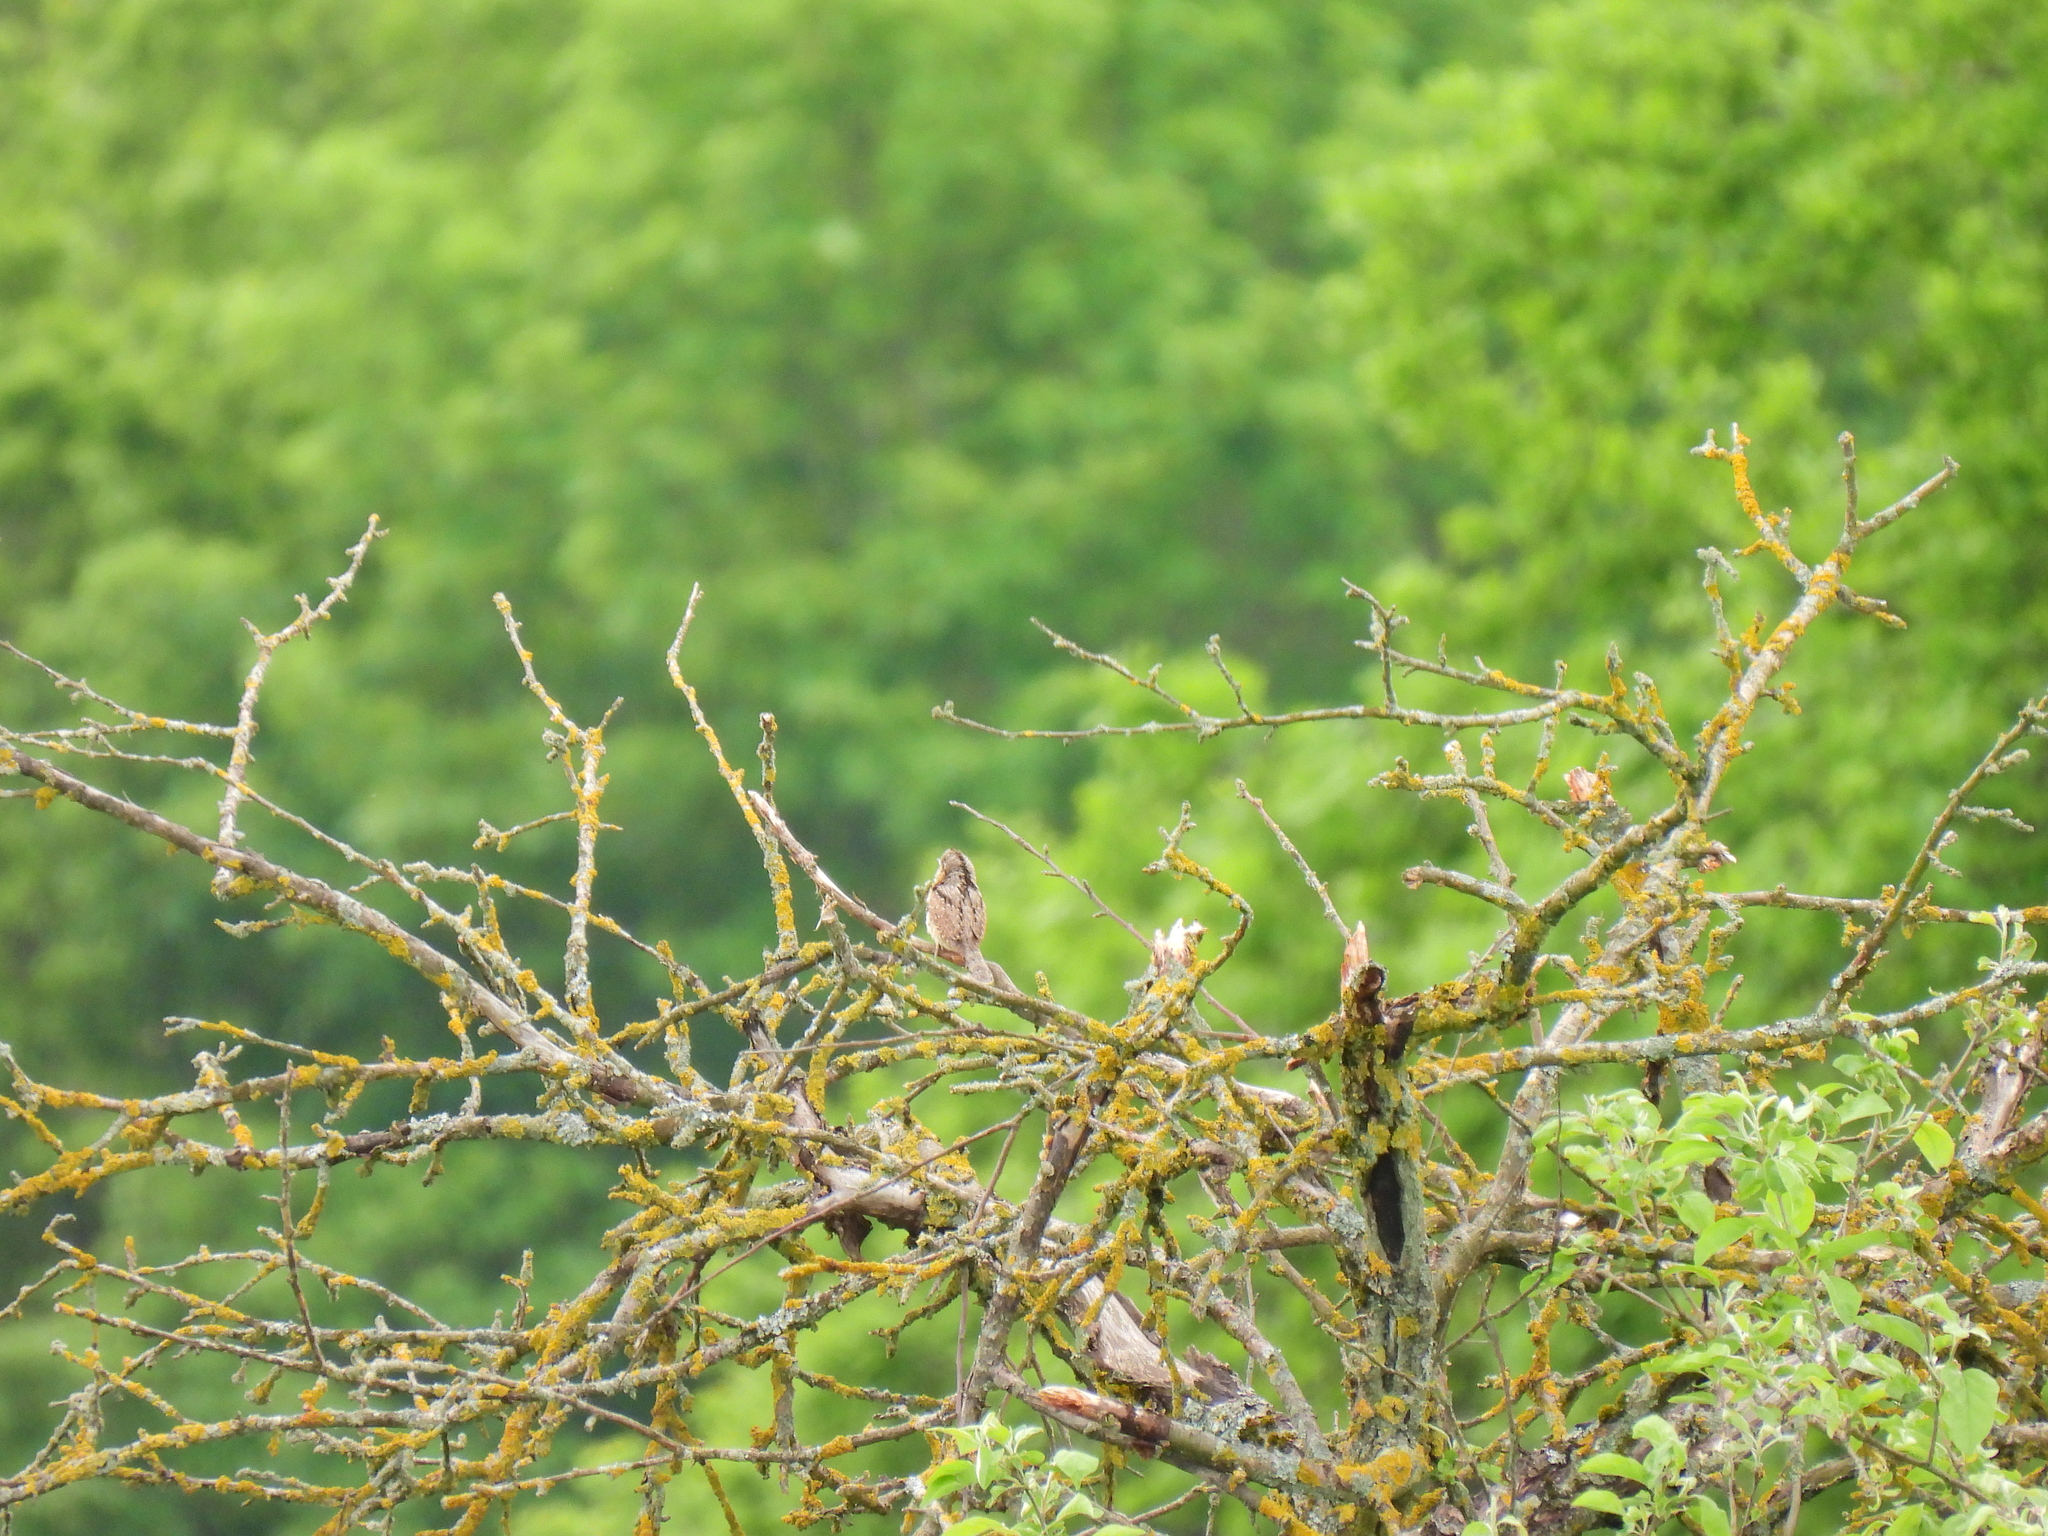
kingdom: Animalia
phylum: Chordata
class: Aves
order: Piciformes
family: Picidae
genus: Jynx
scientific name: Jynx torquilla
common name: Eurasian wryneck
